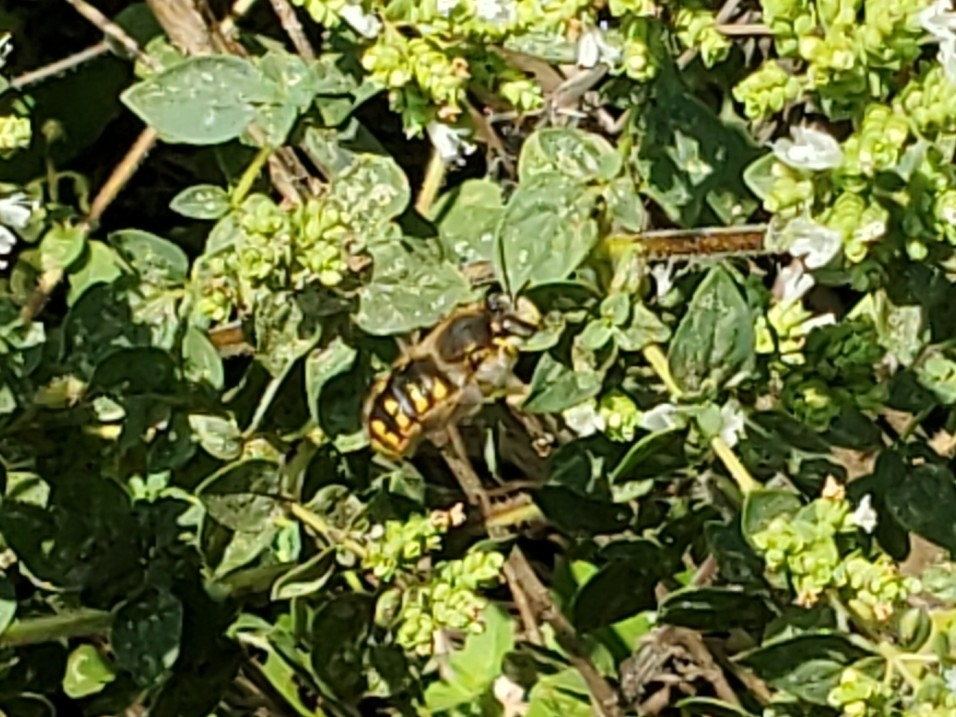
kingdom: Animalia
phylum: Arthropoda
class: Insecta
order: Hymenoptera
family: Megachilidae
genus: Anthidium
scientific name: Anthidium manicatum
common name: Wool carder bee
